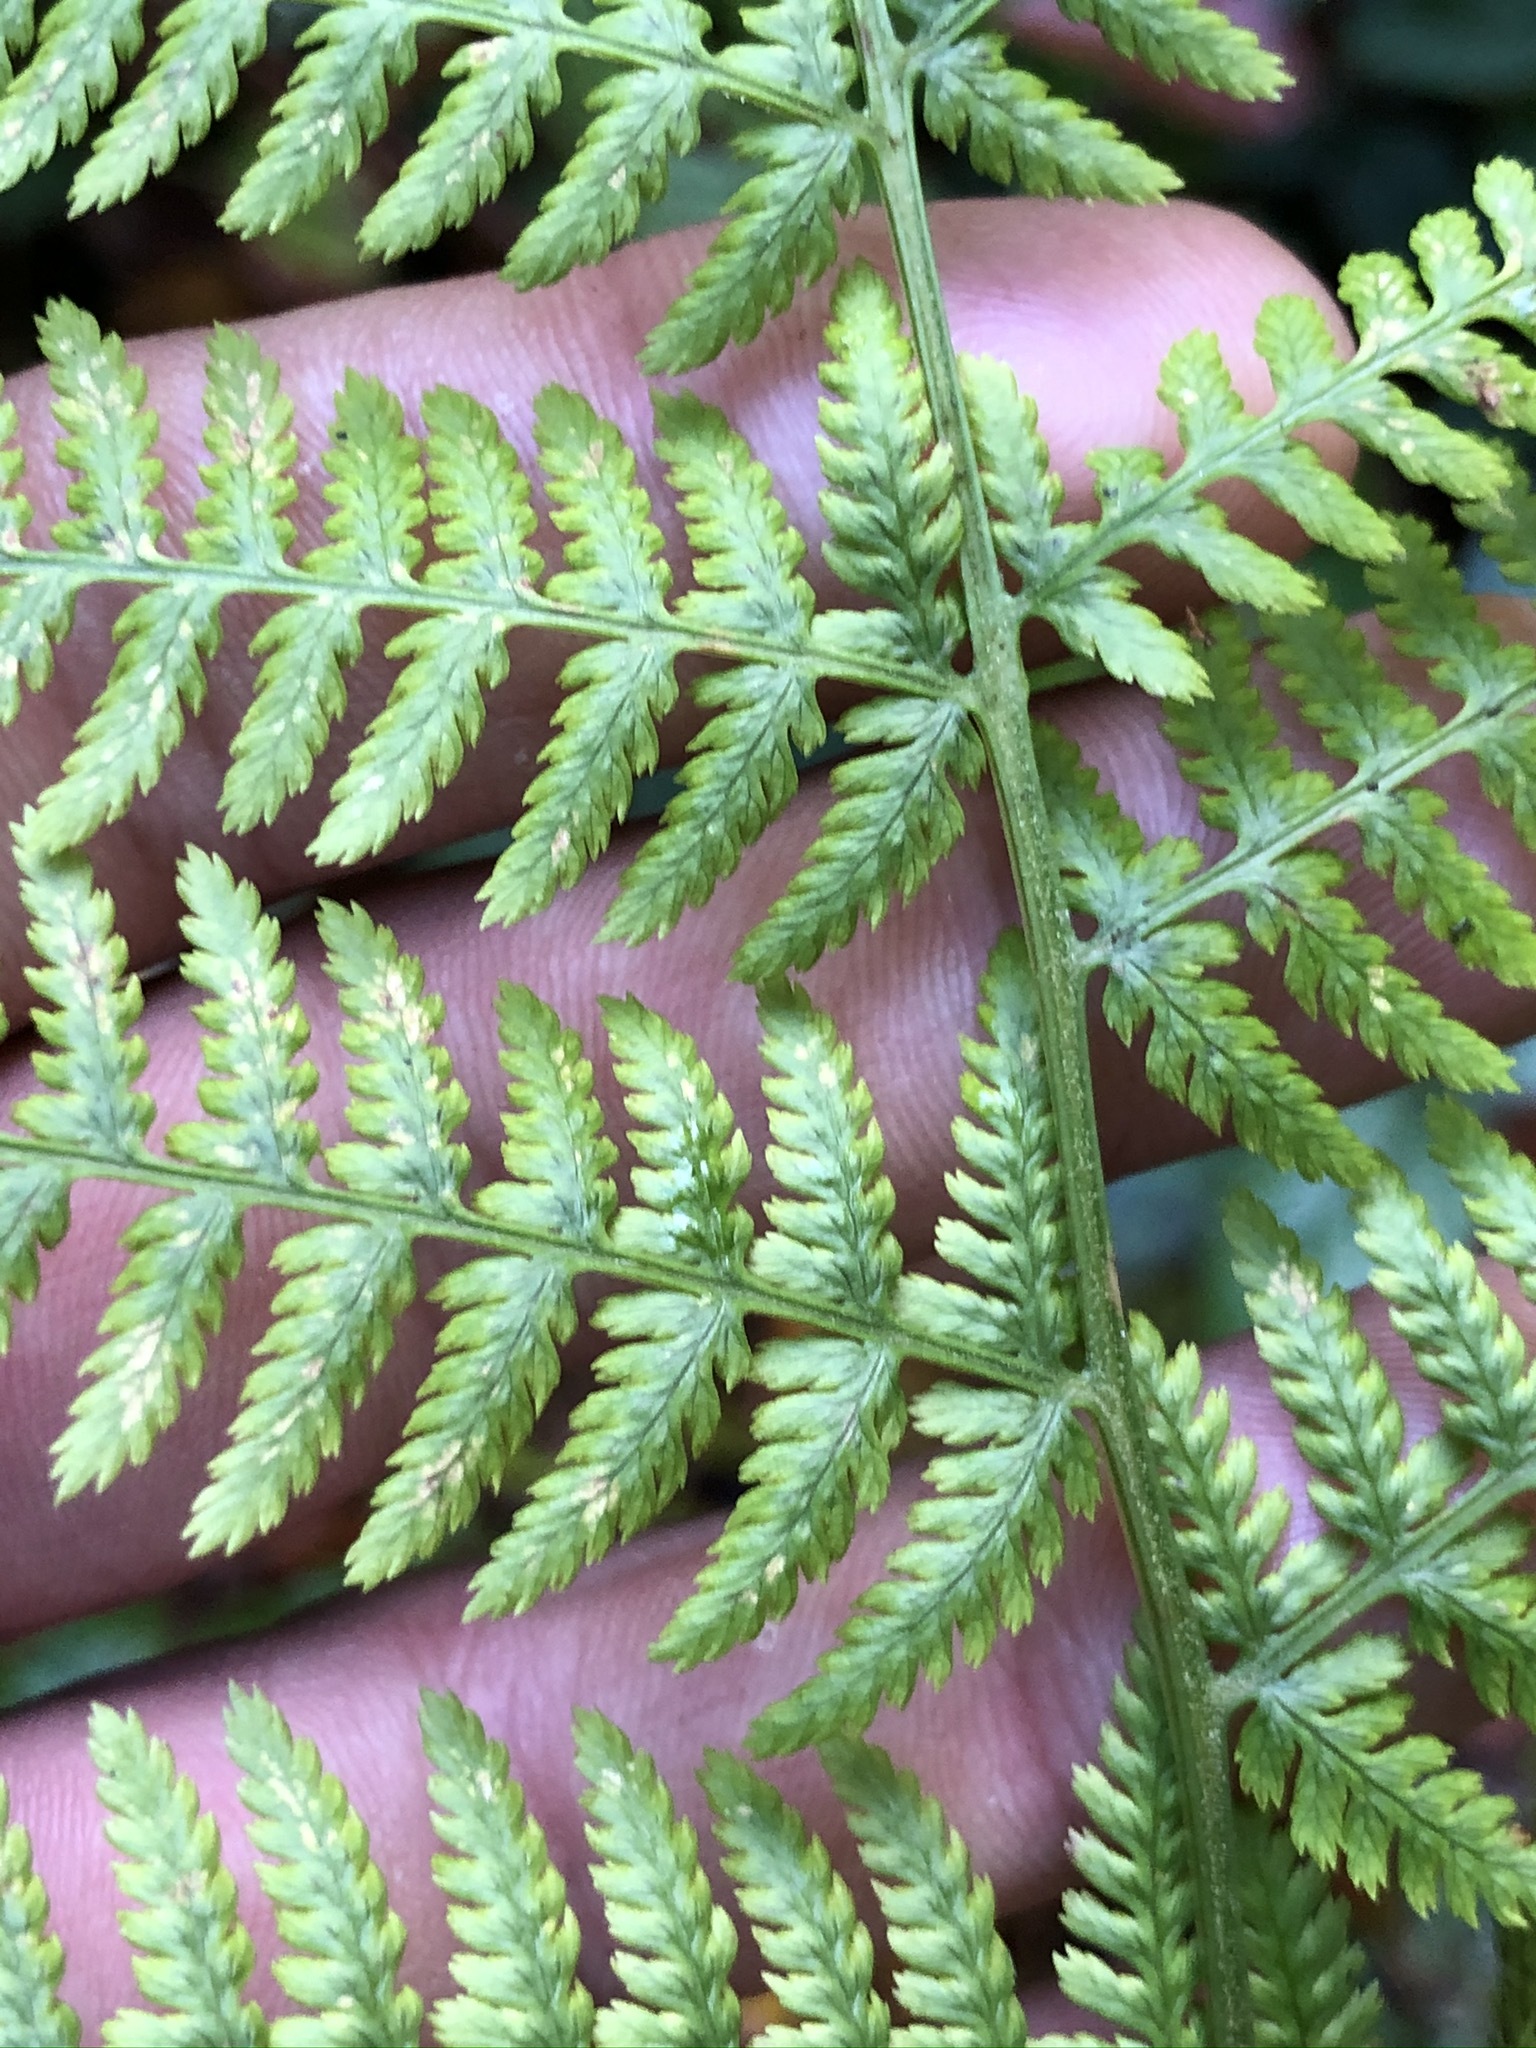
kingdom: Plantae
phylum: Tracheophyta
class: Polypodiopsida
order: Polypodiales
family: Athyriaceae
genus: Athyrium
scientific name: Athyrium filix-femina
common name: Lady fern
